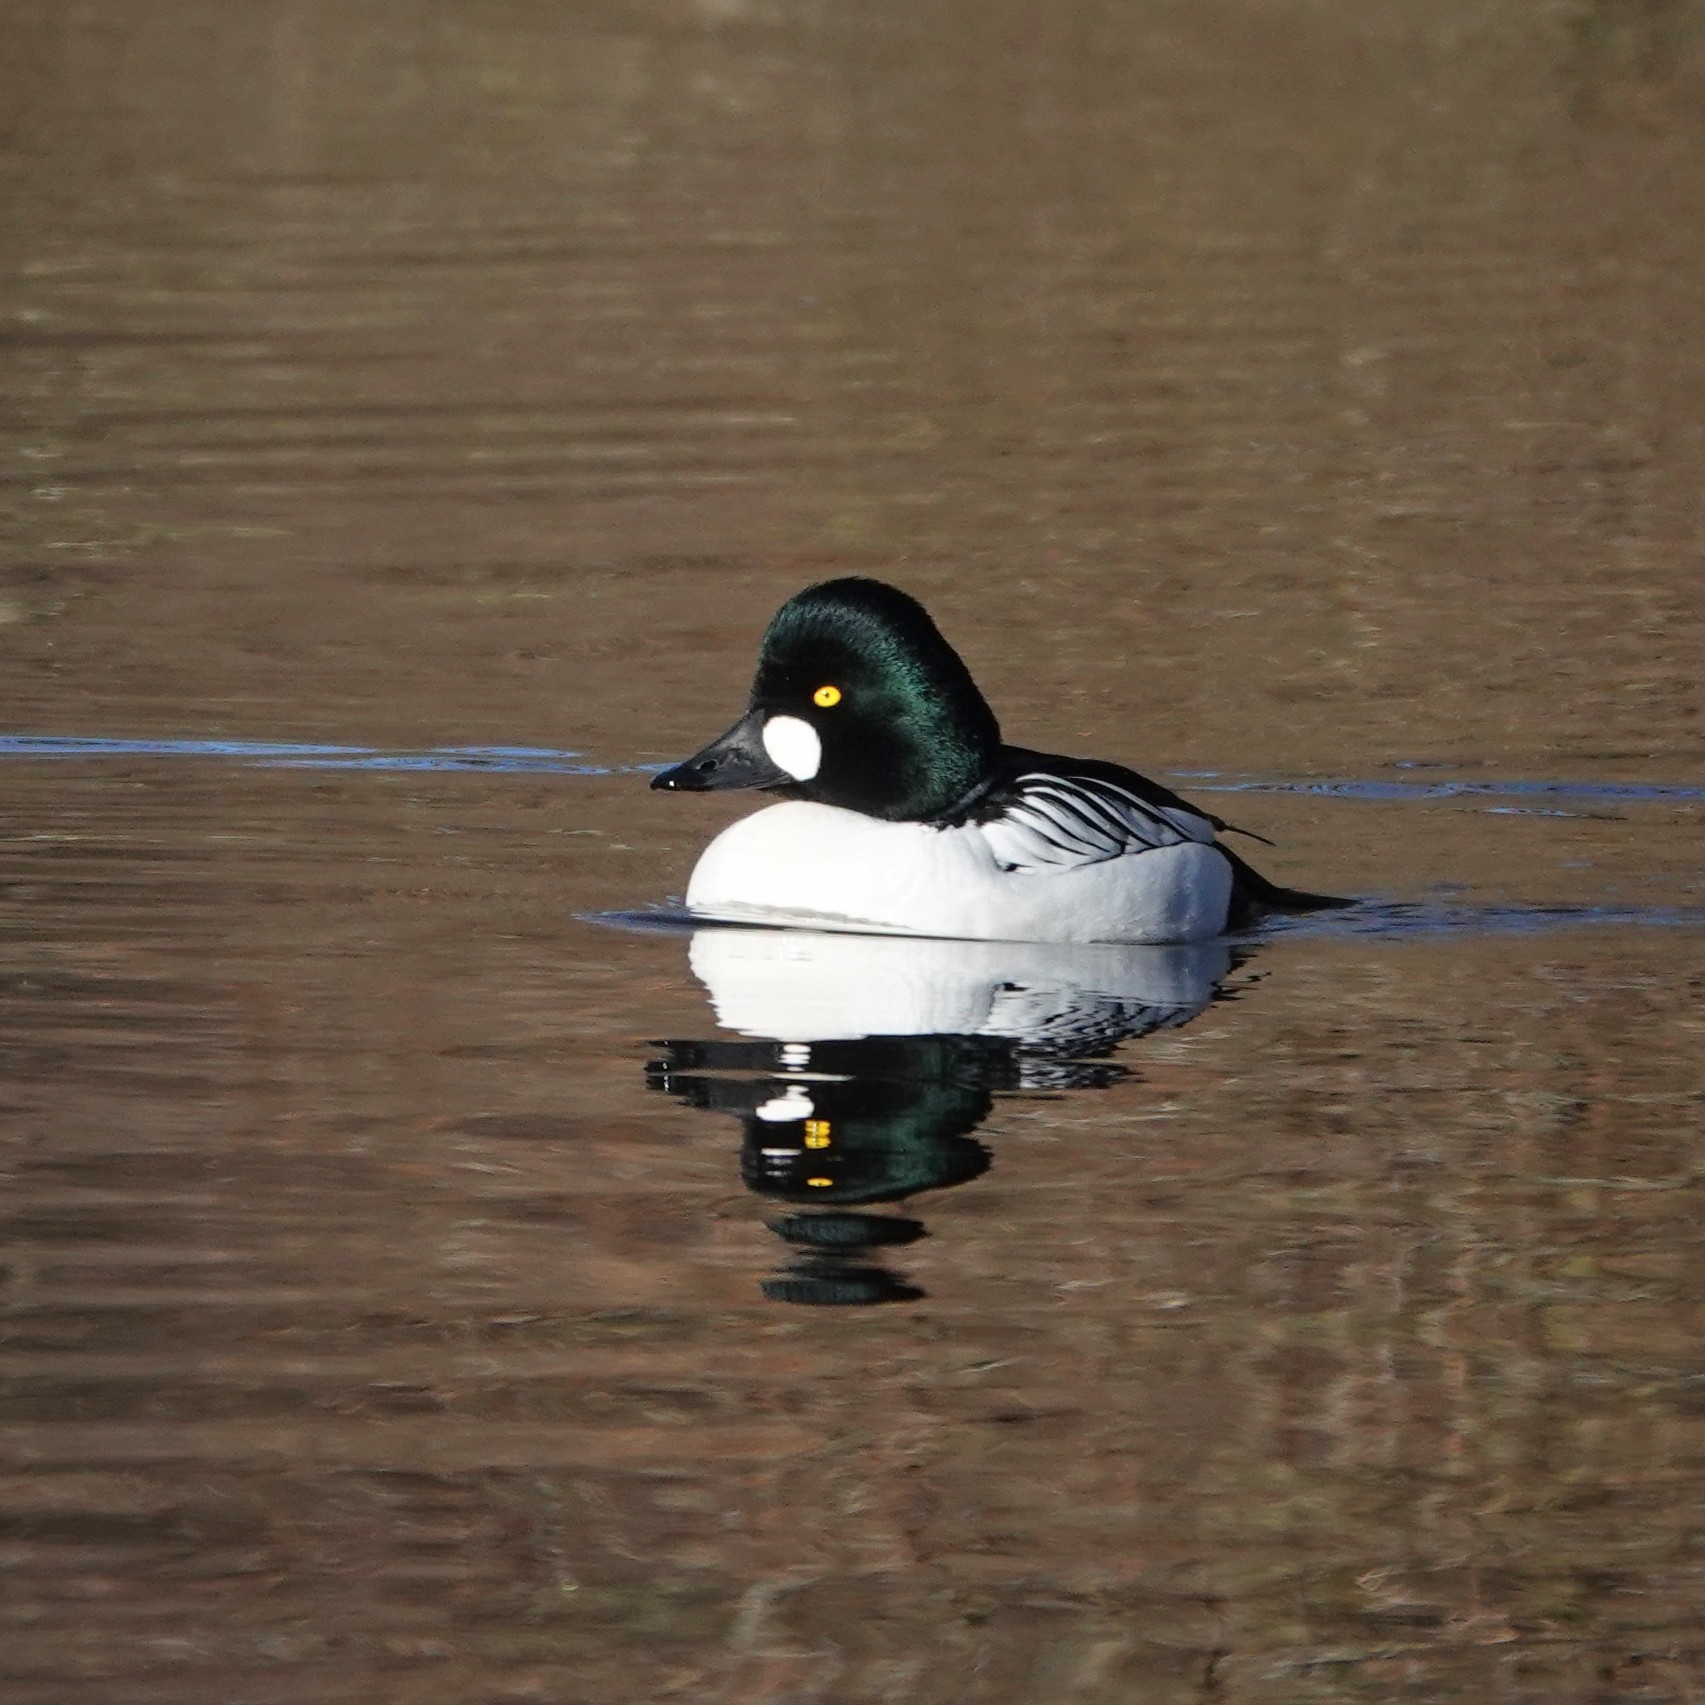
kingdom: Animalia
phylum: Chordata
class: Aves
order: Anseriformes
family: Anatidae
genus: Bucephala
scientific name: Bucephala clangula
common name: Common goldeneye
